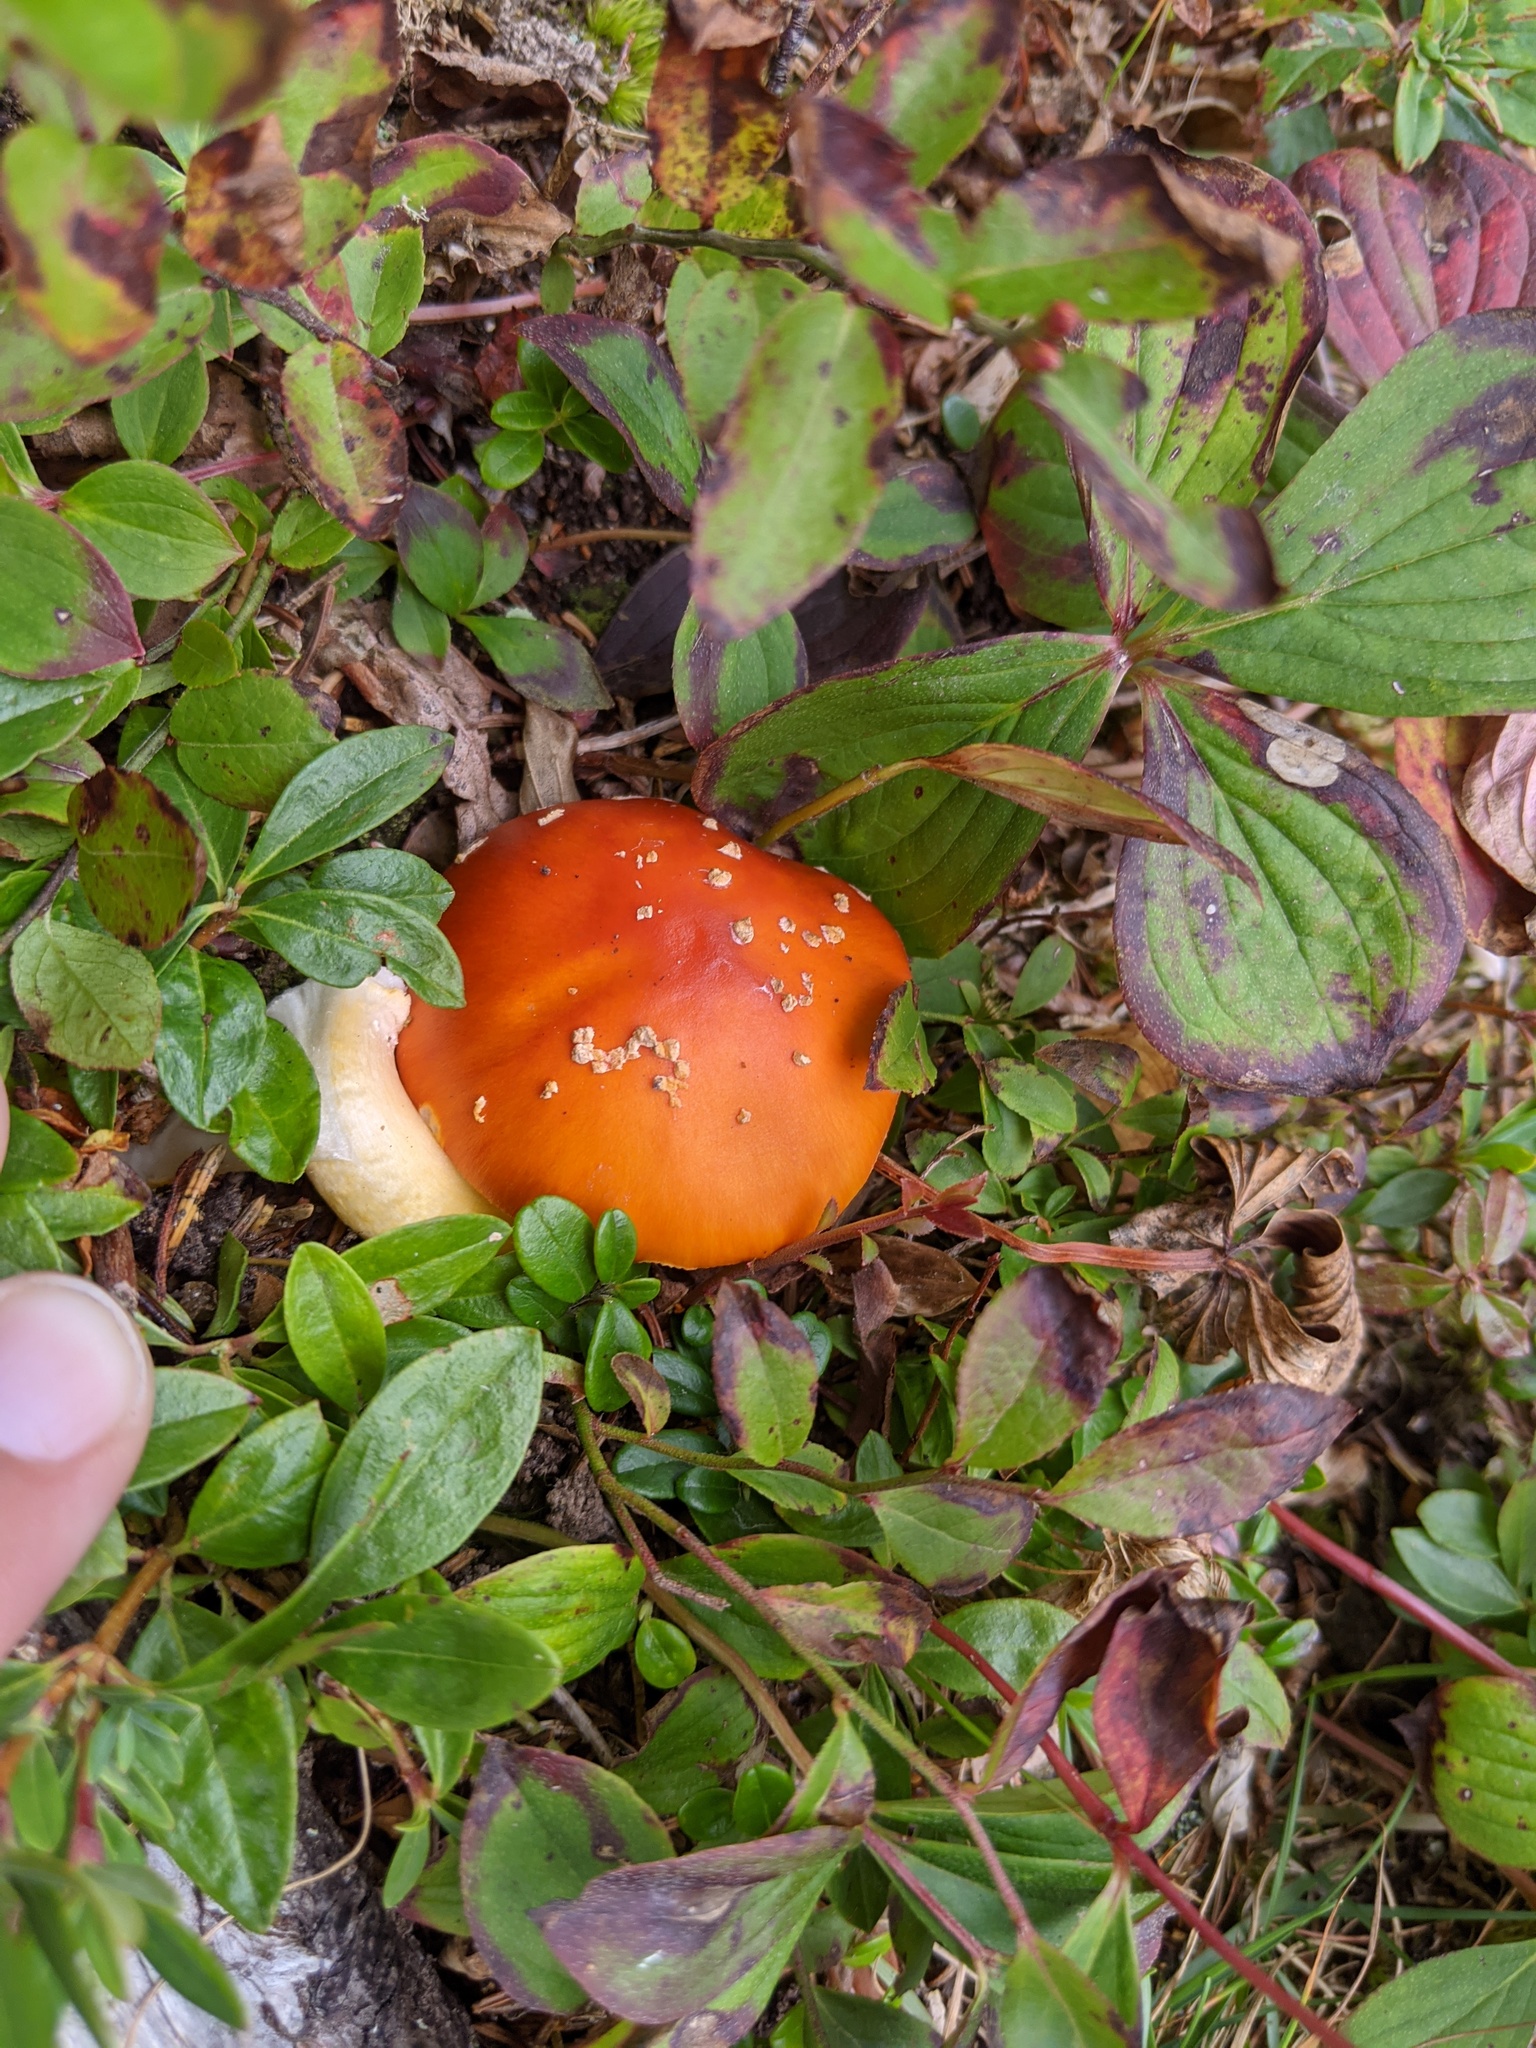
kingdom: Fungi
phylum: Basidiomycota
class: Agaricomycetes
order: Agaricales
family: Amanitaceae
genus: Amanita
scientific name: Amanita muscaria
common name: Fly agaric
